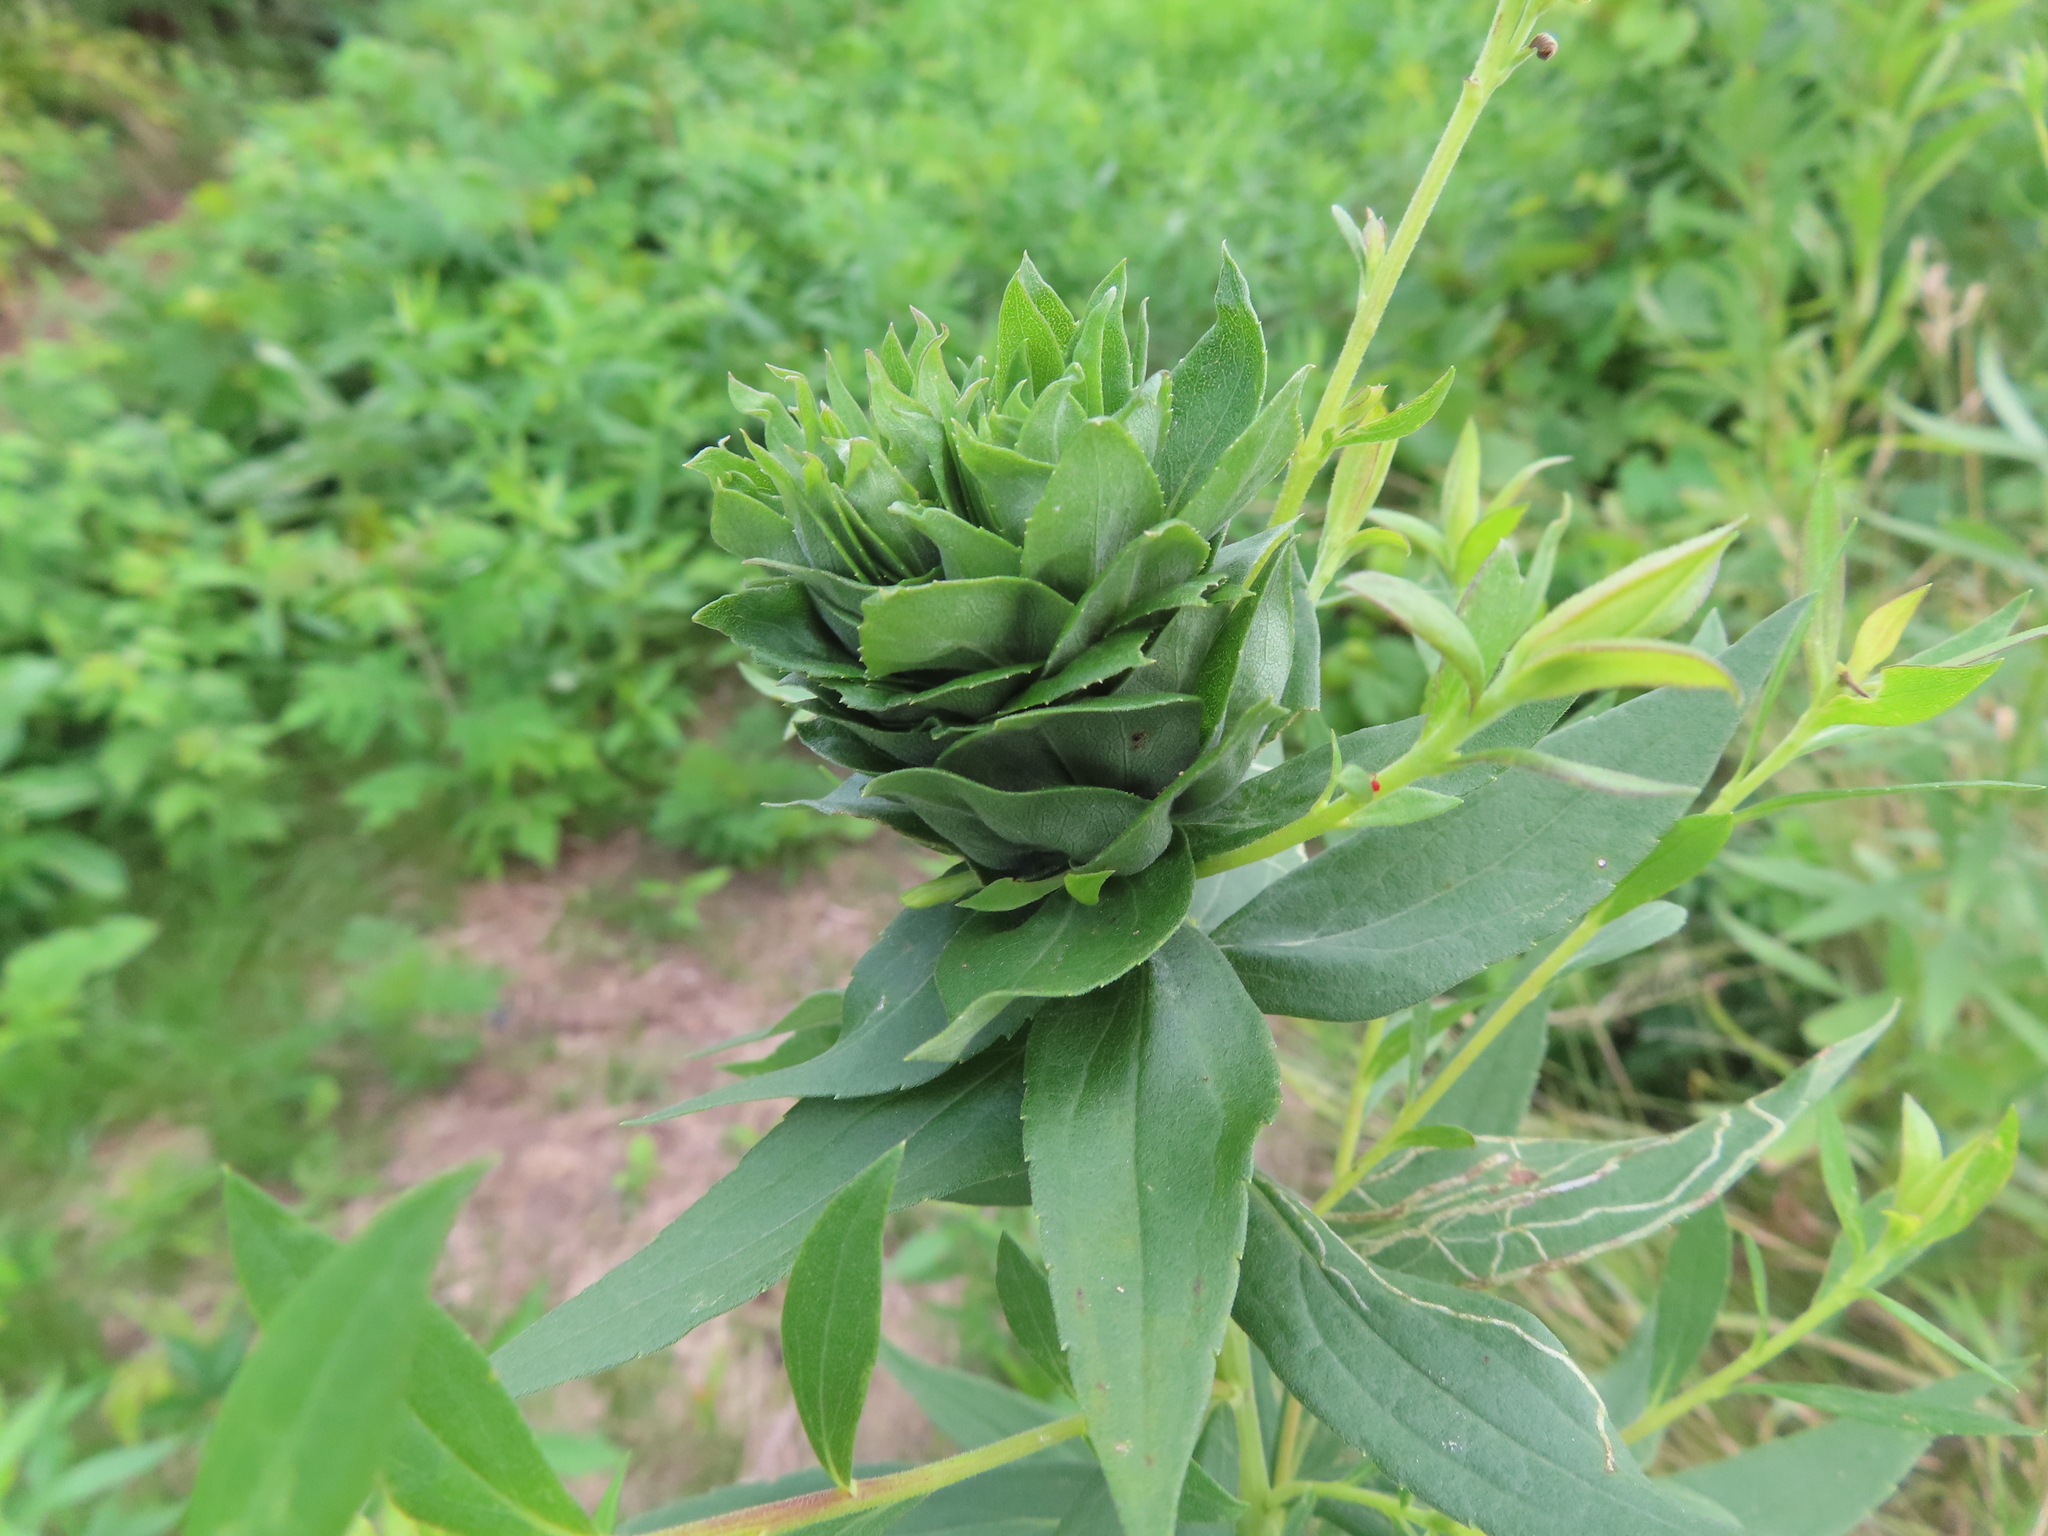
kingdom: Animalia
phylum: Arthropoda
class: Insecta
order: Diptera
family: Cecidomyiidae
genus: Rhopalomyia
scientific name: Rhopalomyia solidaginis
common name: Goldenrod bunch gall midge
